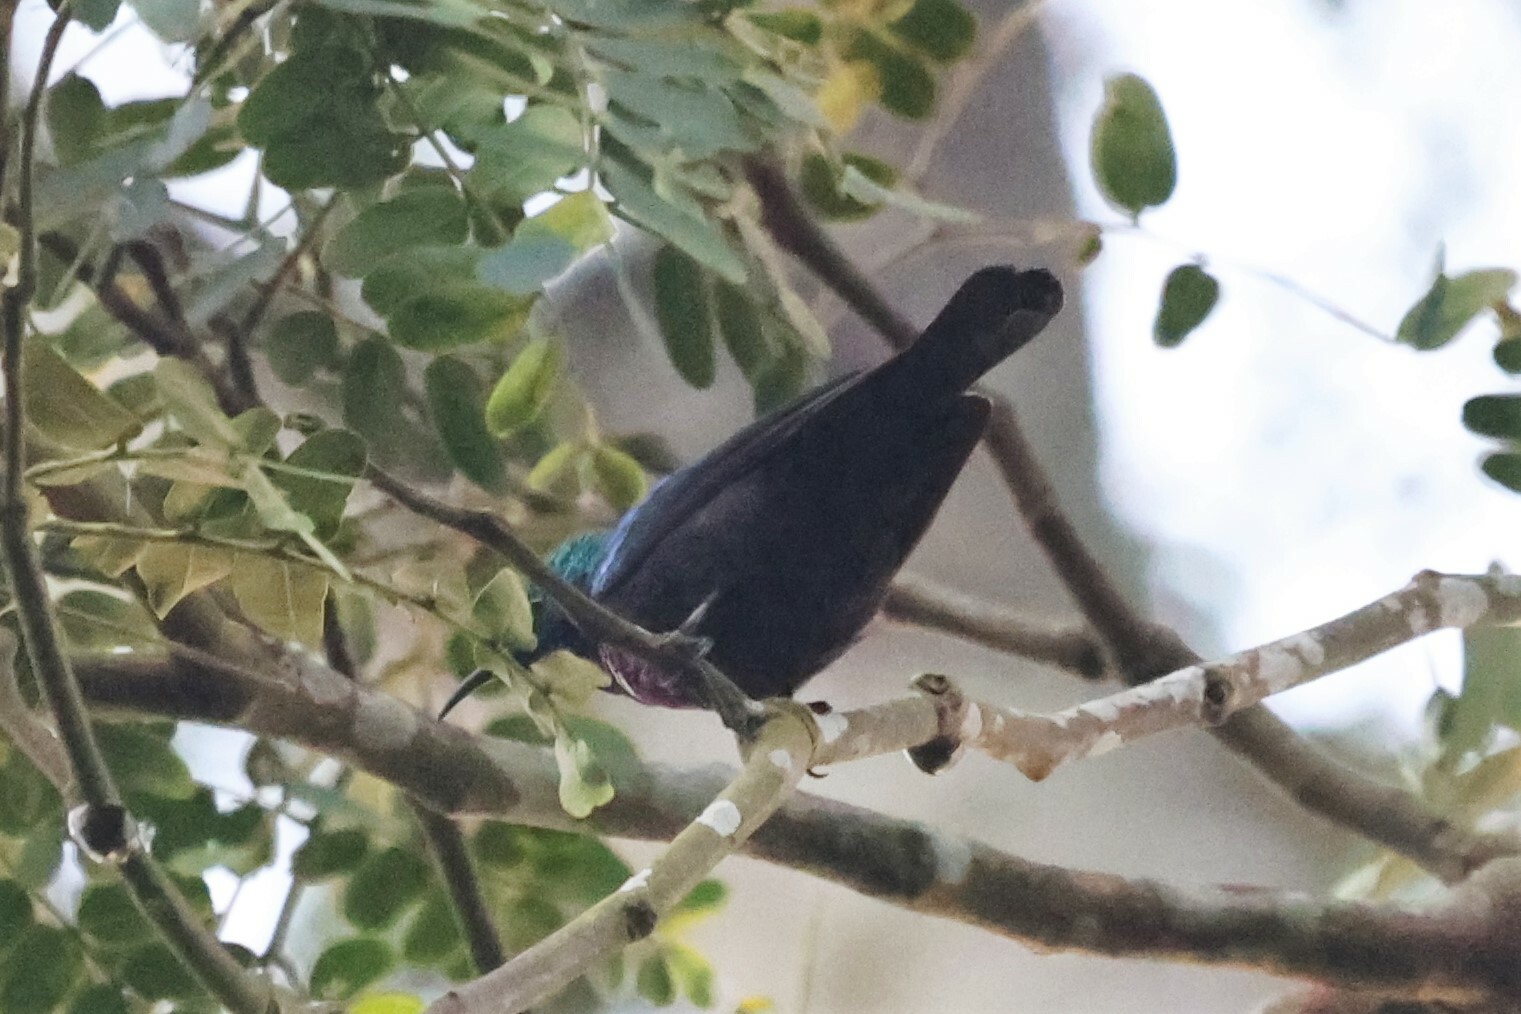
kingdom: Animalia
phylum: Chordata
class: Aves
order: Passeriformes
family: Nectariniidae
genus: Cinnyris
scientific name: Cinnyris bifasciatus
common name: Purple-banded sunbird
